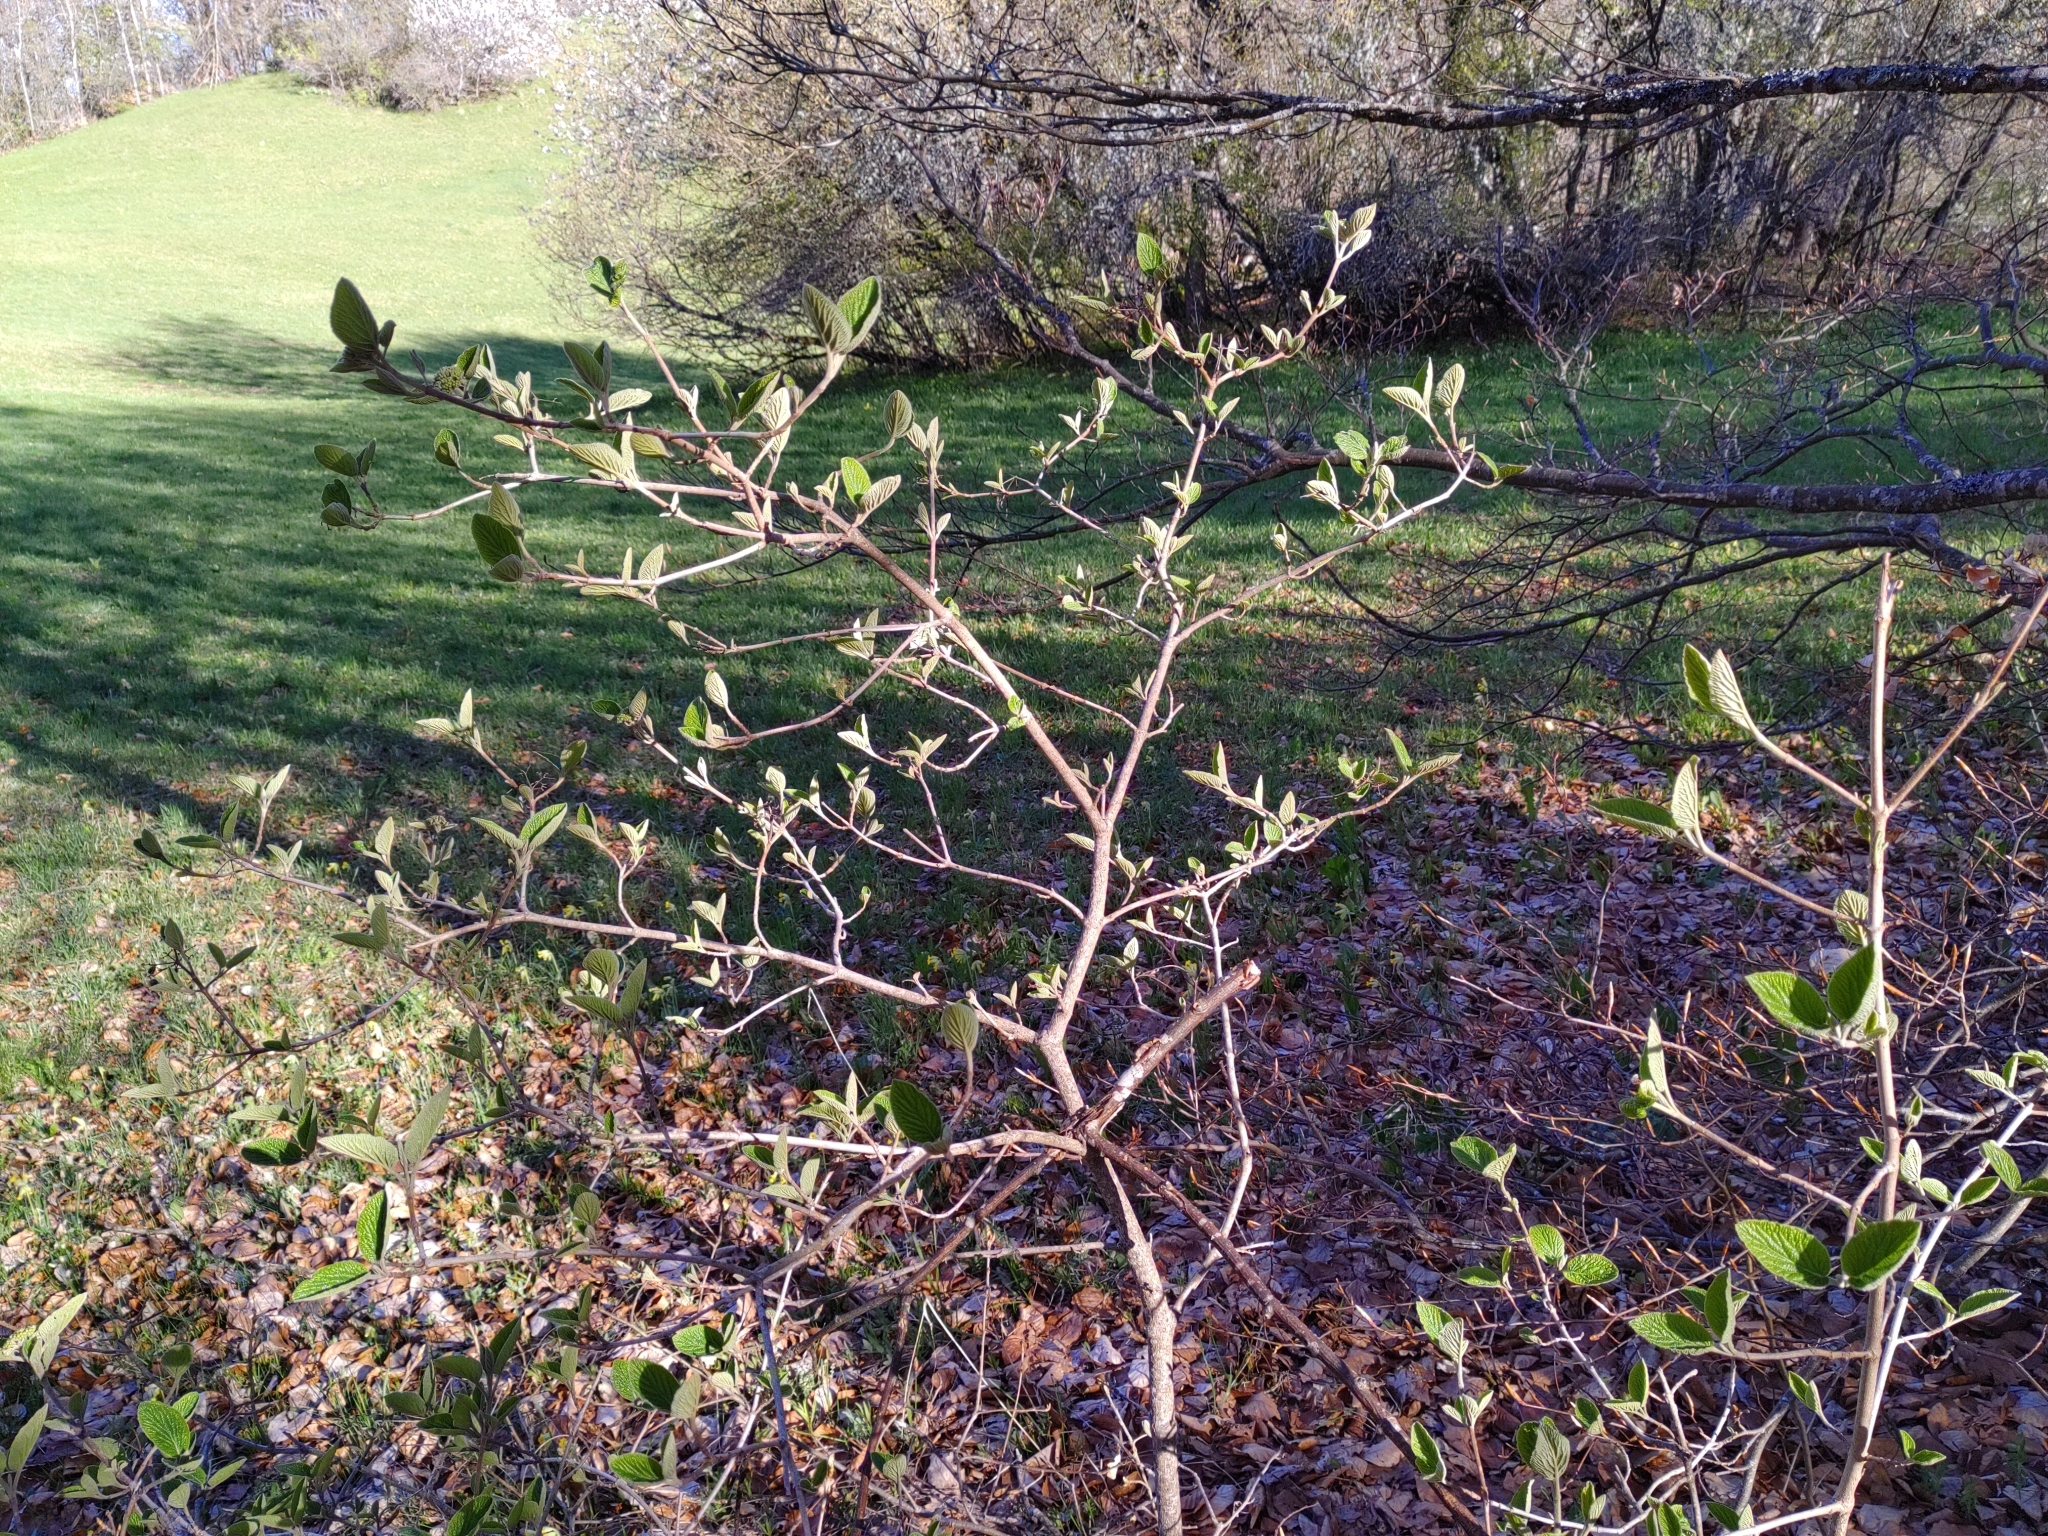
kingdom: Plantae
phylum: Tracheophyta
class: Magnoliopsida
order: Dipsacales
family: Viburnaceae
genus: Viburnum
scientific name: Viburnum lantana
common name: Wayfaring tree
